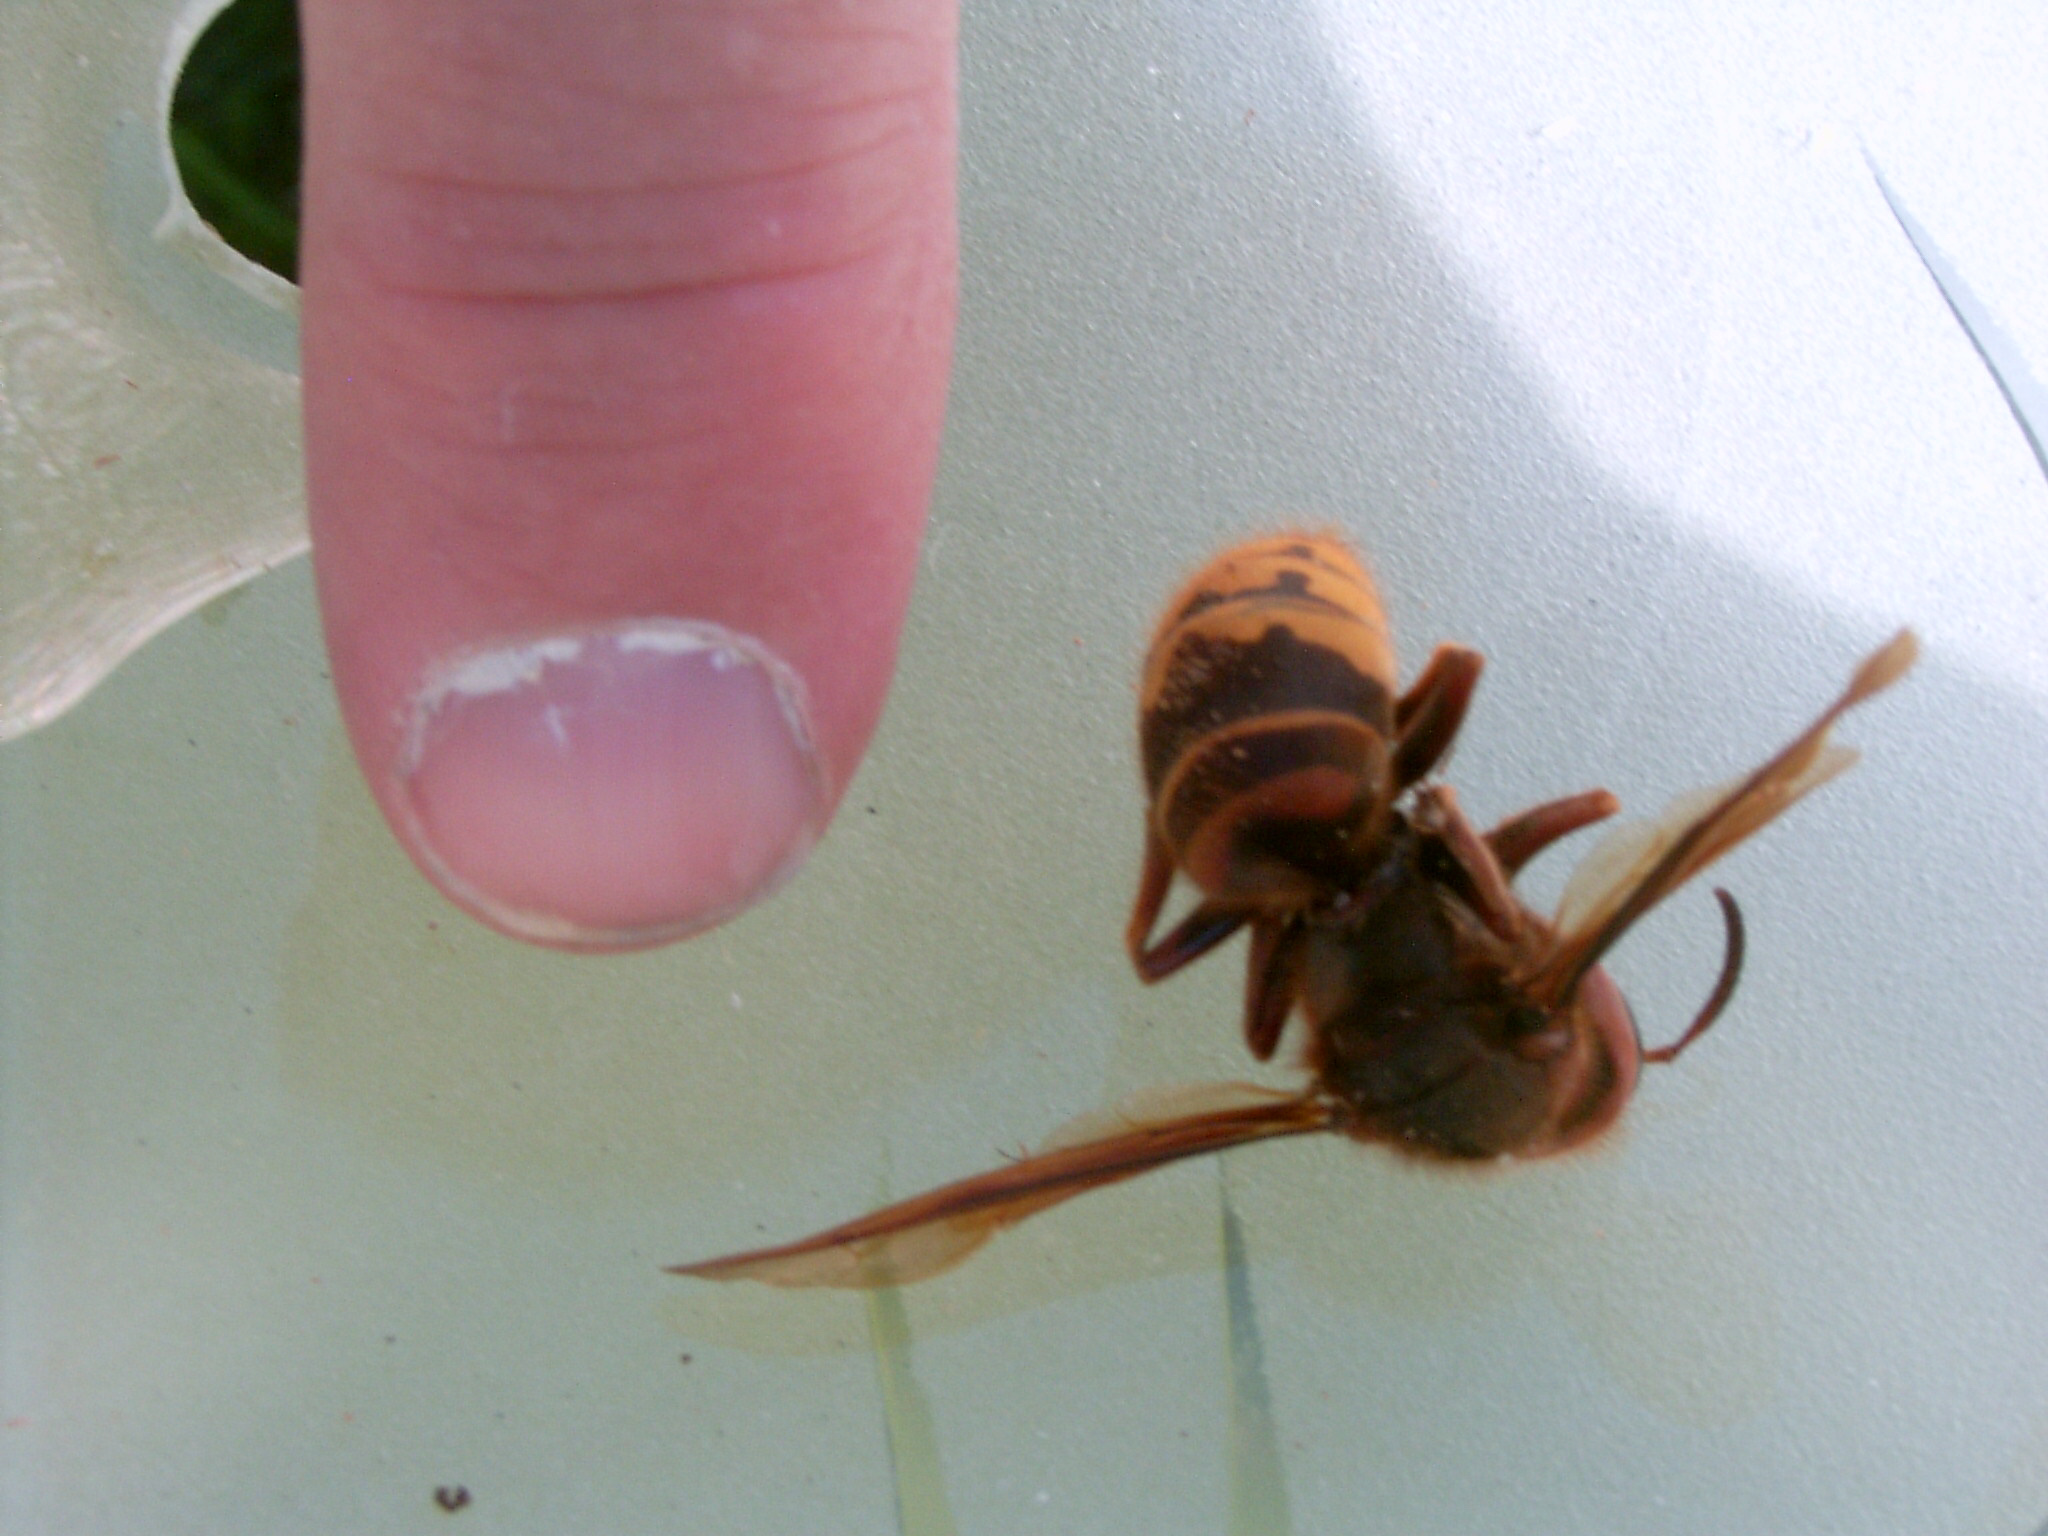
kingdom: Animalia
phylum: Arthropoda
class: Insecta
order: Hymenoptera
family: Vespidae
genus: Vespa
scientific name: Vespa crabro
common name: Hornet
